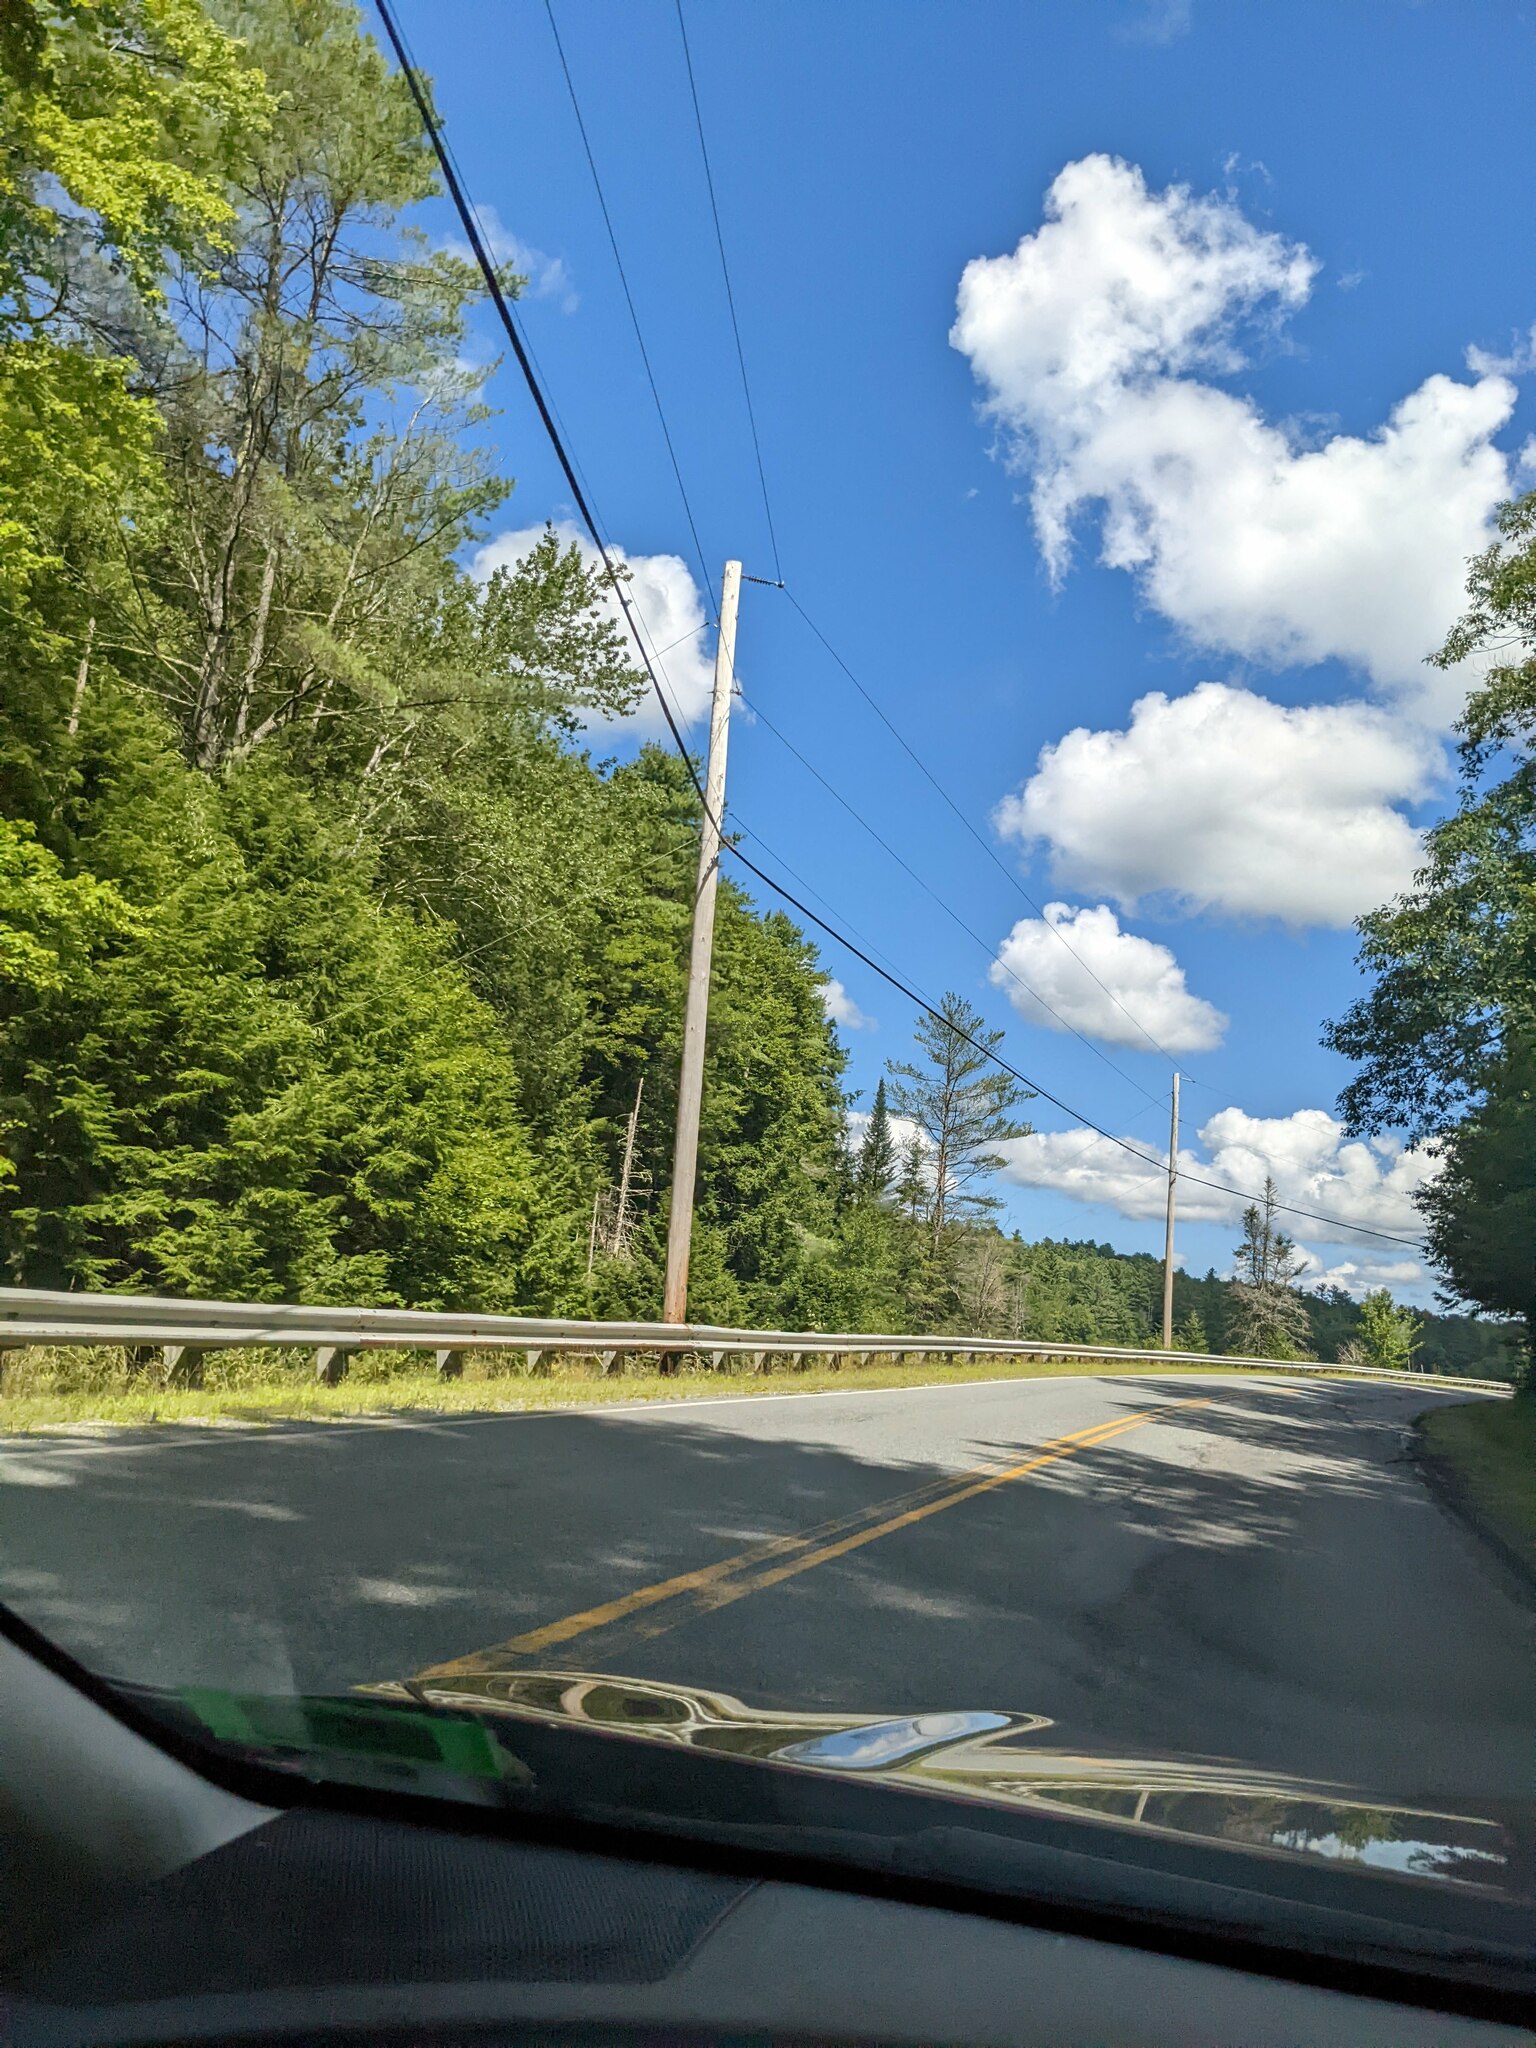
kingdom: Plantae
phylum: Tracheophyta
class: Pinopsida
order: Pinales
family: Pinaceae
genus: Pinus
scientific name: Pinus strobus
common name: Weymouth pine
